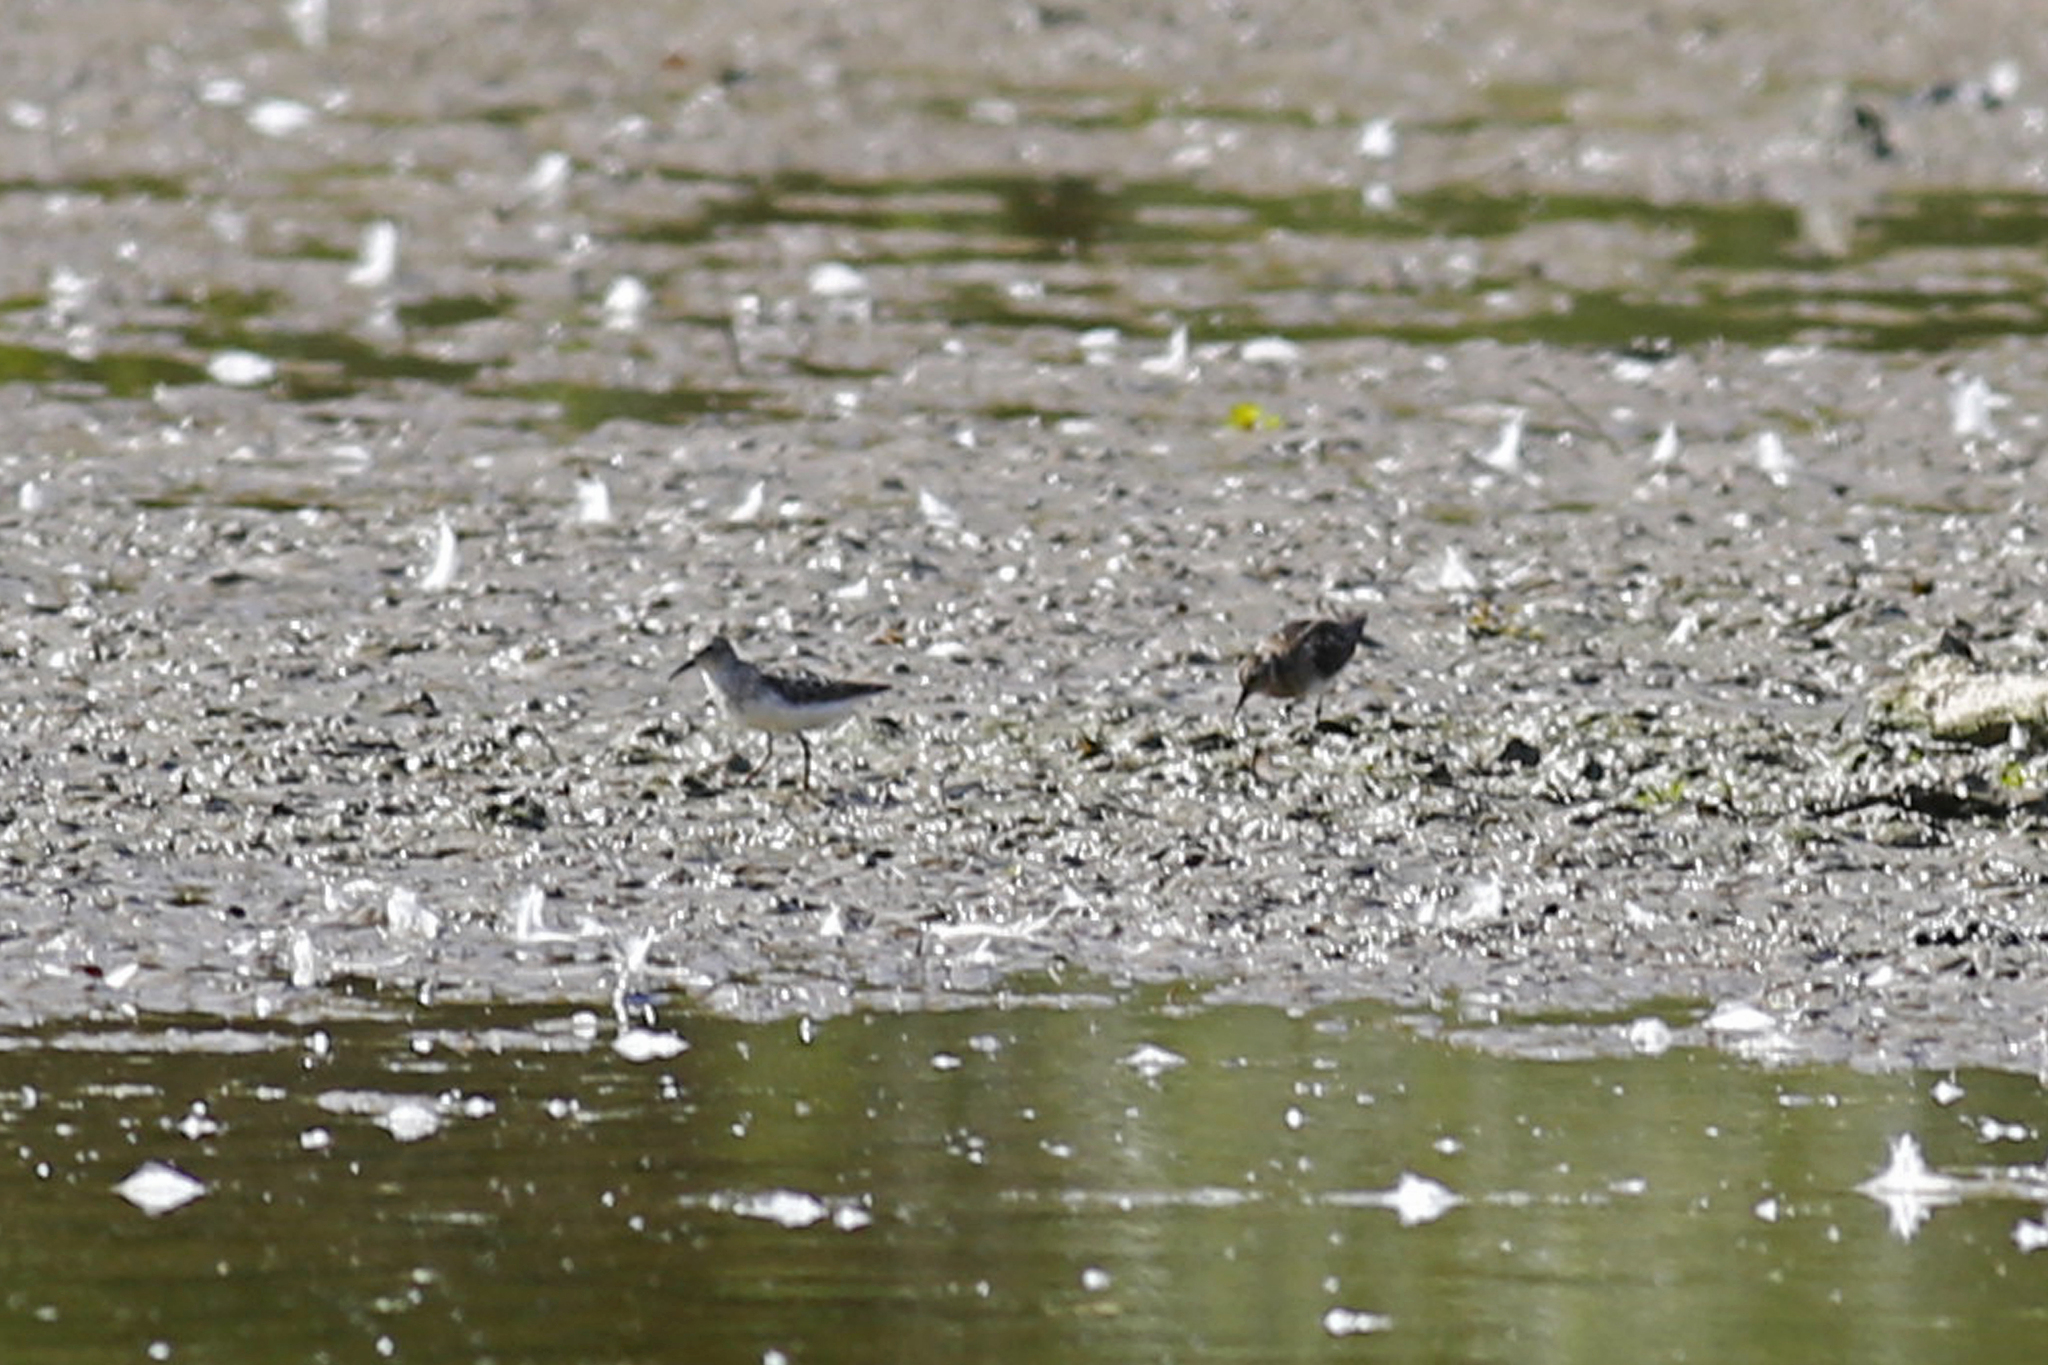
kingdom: Animalia
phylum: Chordata
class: Aves
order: Charadriiformes
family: Scolopacidae
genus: Calidris
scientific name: Calidris pusilla
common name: Semipalmated sandpiper
